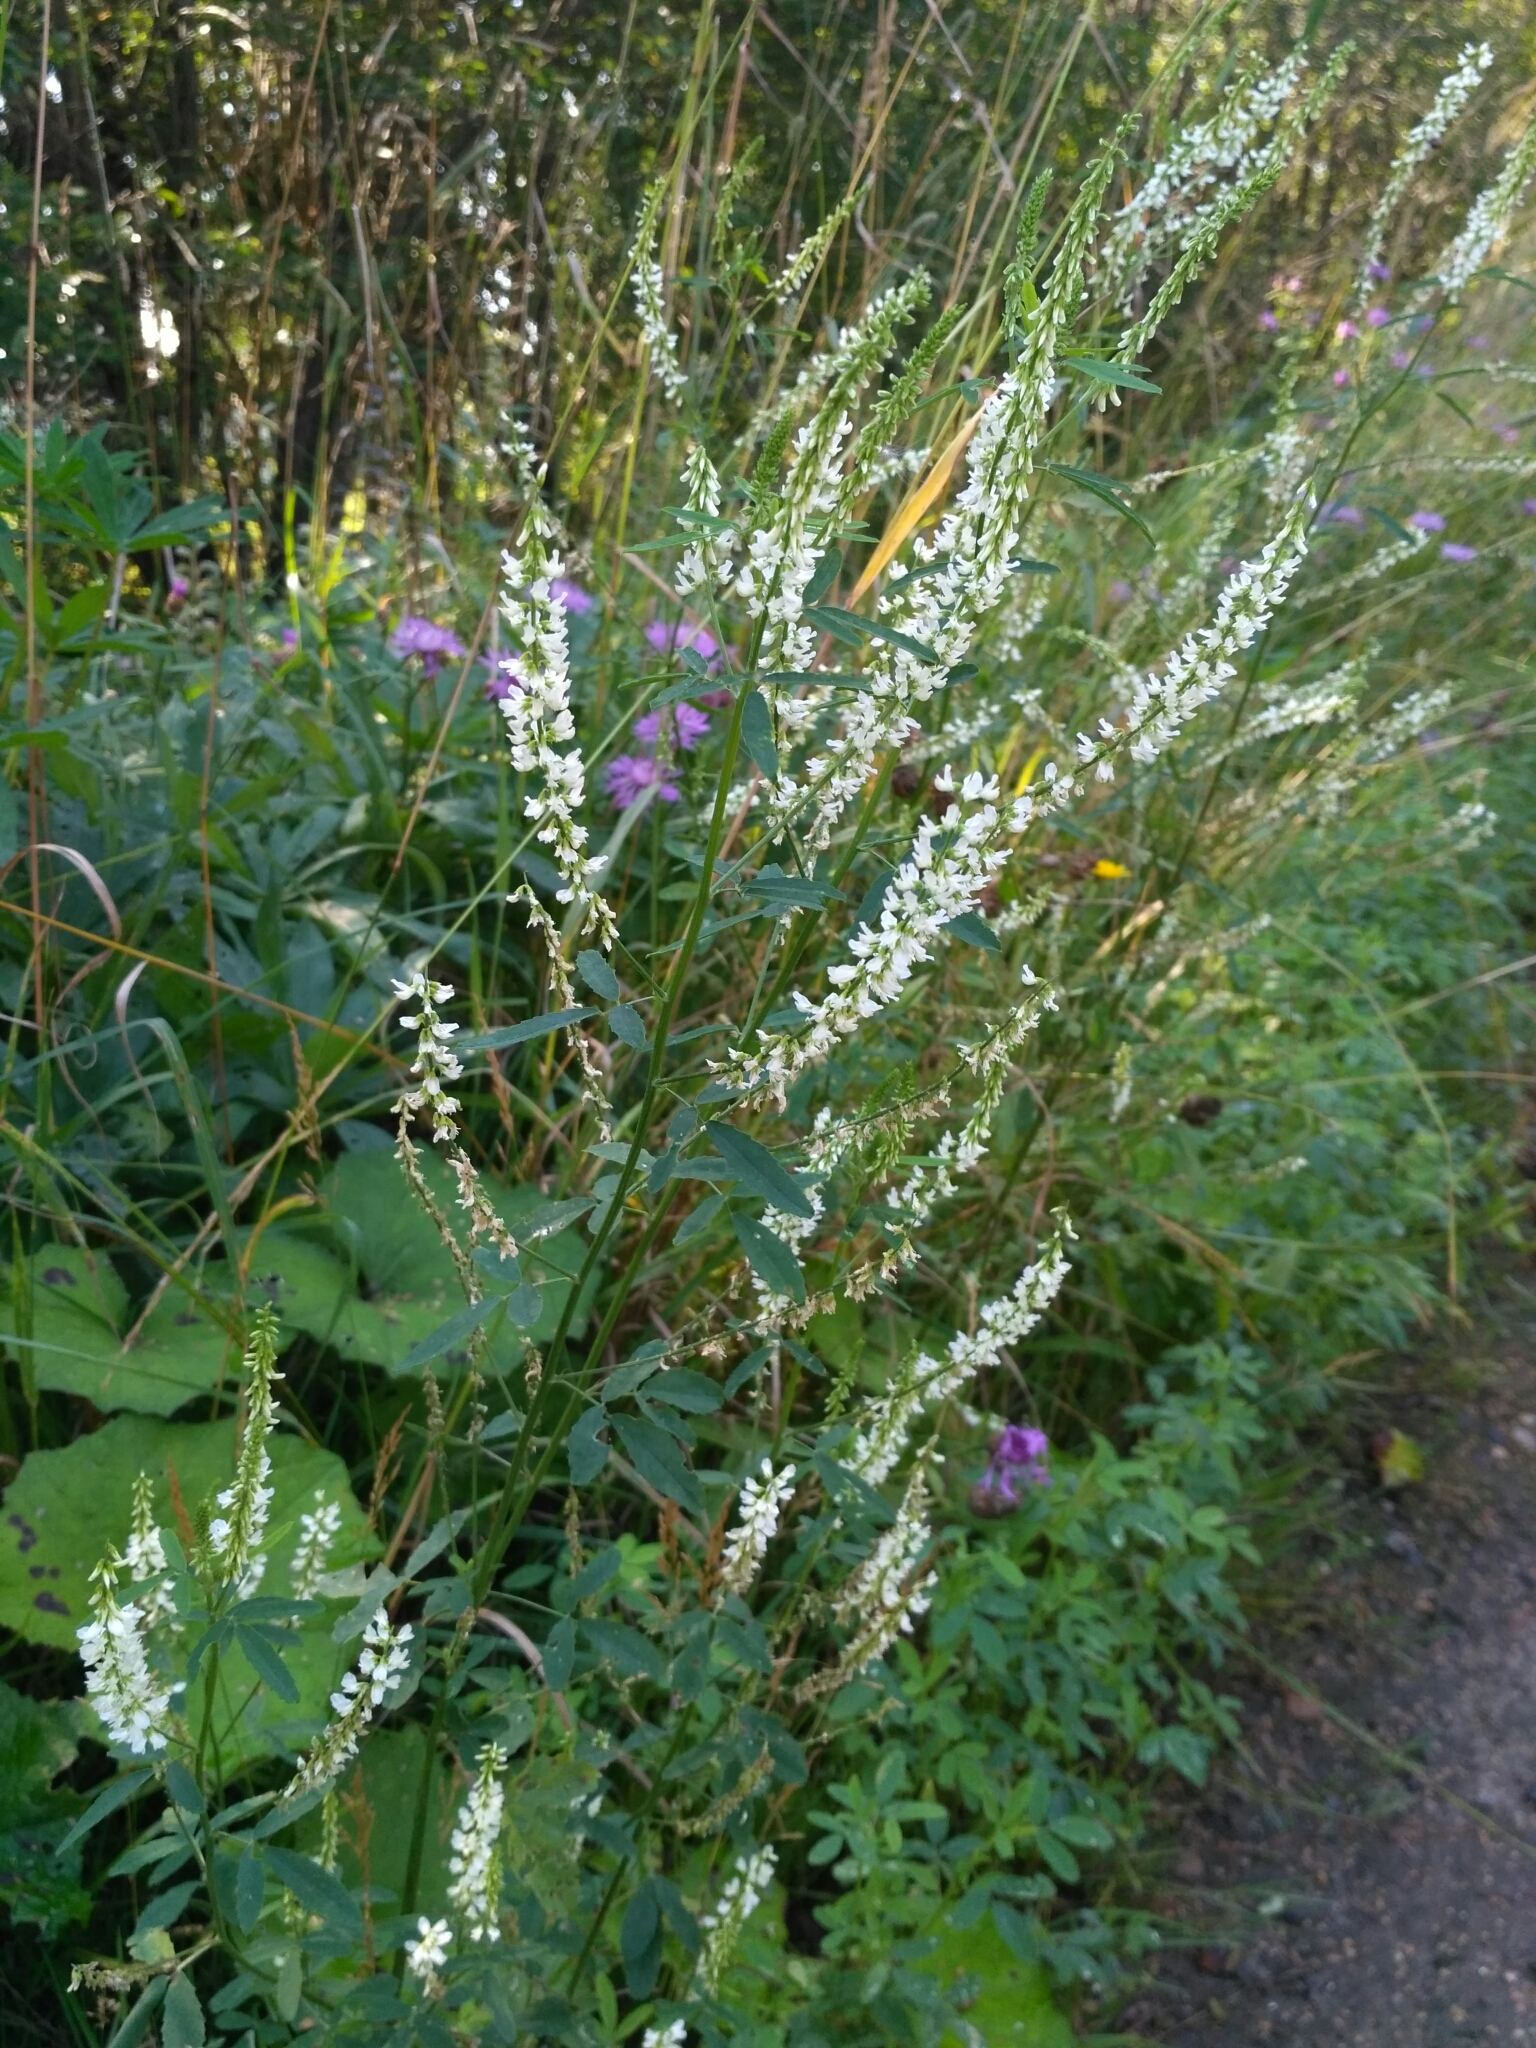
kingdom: Plantae
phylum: Tracheophyta
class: Magnoliopsida
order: Fabales
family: Fabaceae
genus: Melilotus
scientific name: Melilotus albus
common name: White melilot
